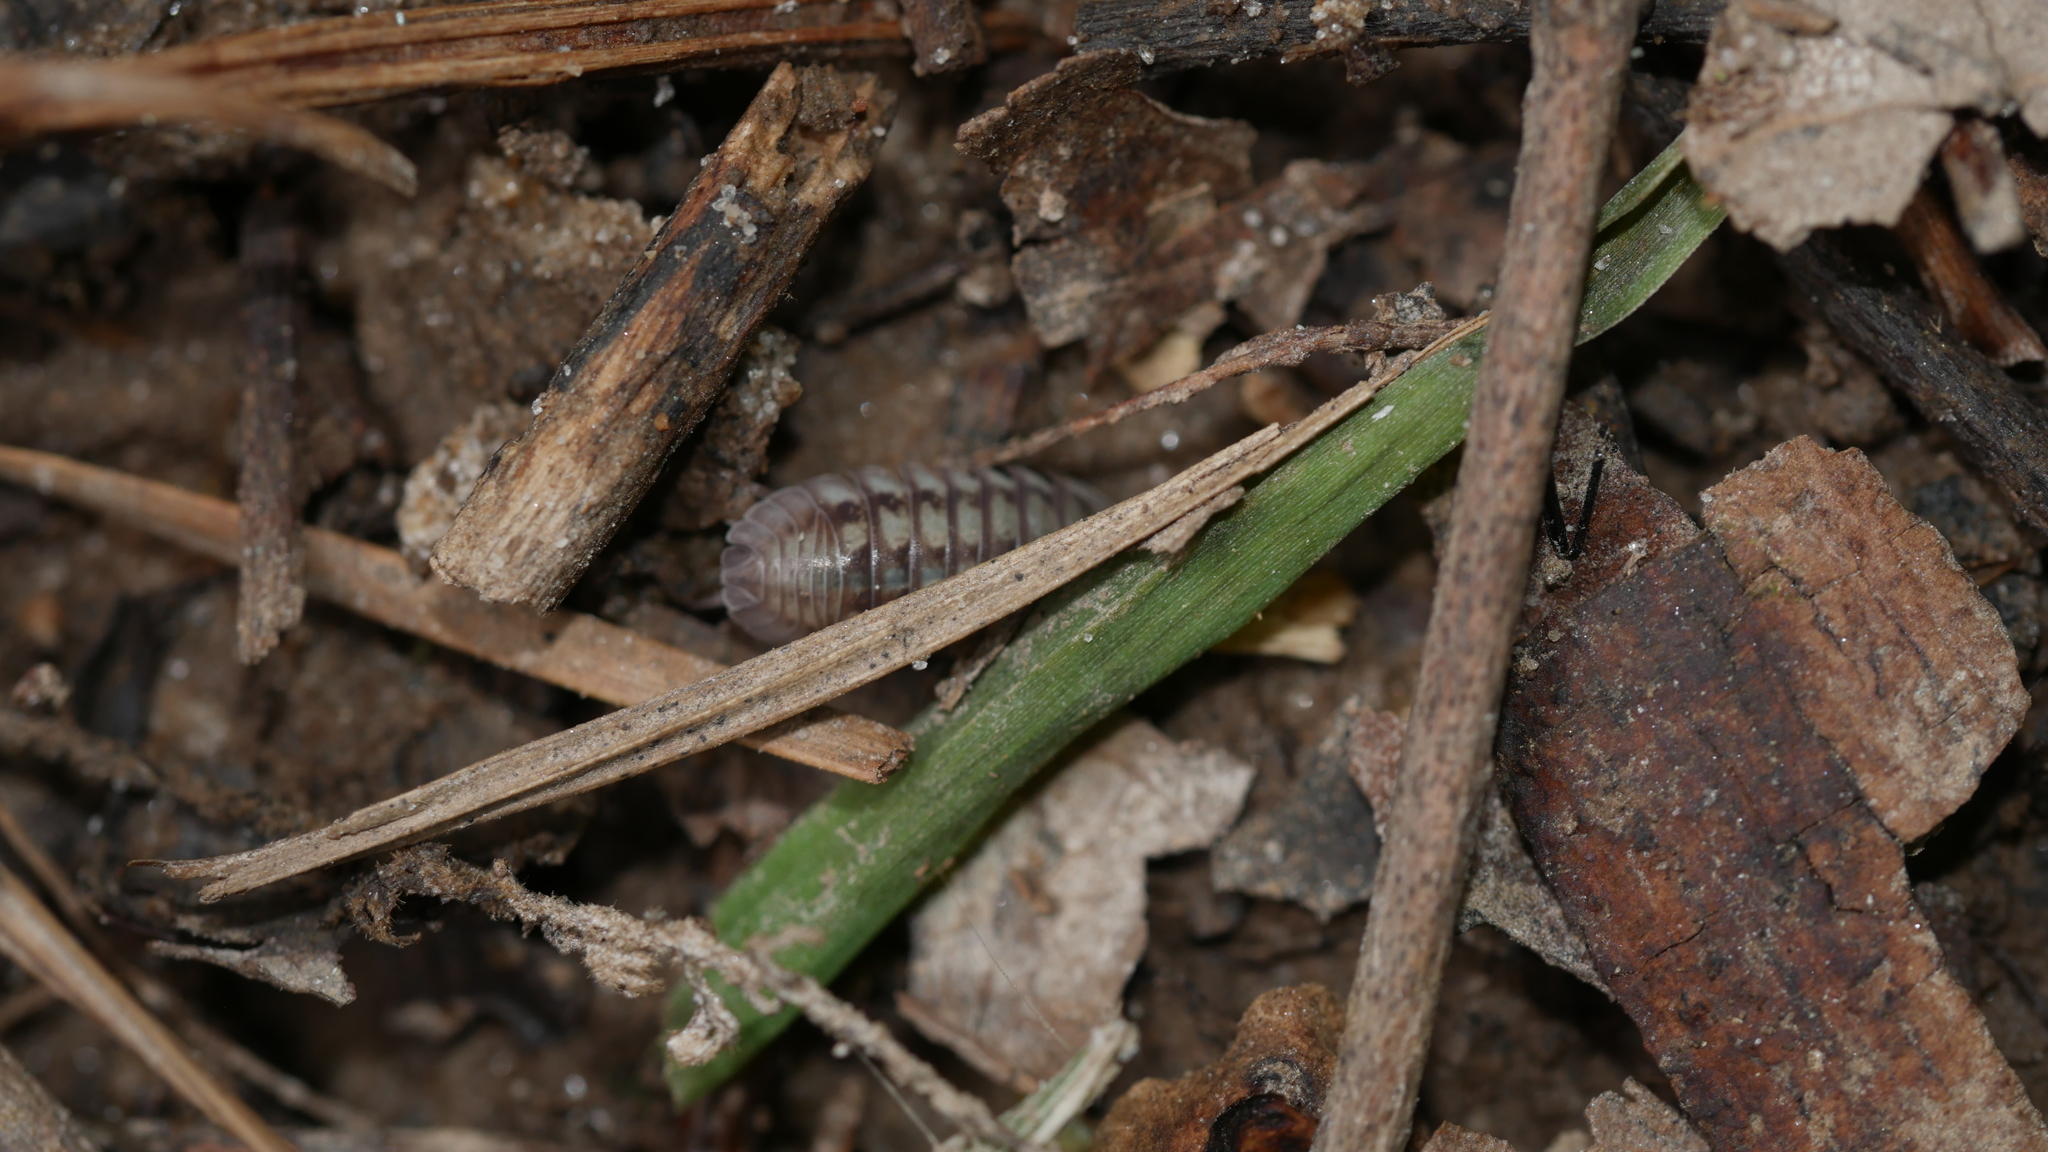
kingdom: Animalia
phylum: Arthropoda
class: Malacostraca
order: Isopoda
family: Armadillidiidae
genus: Armadillidium
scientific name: Armadillidium nasatum
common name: Isopod
